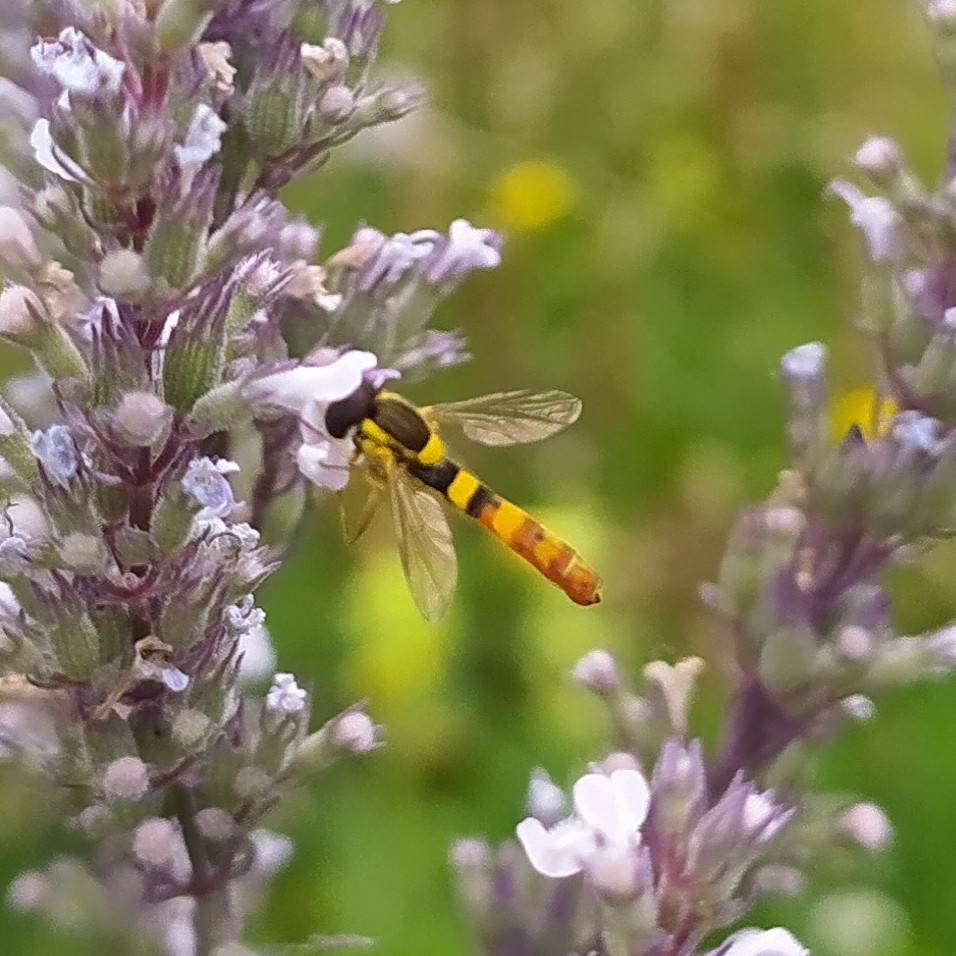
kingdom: Animalia
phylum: Arthropoda
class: Insecta
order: Diptera
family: Syrphidae
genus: Sphaerophoria
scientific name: Sphaerophoria scripta
